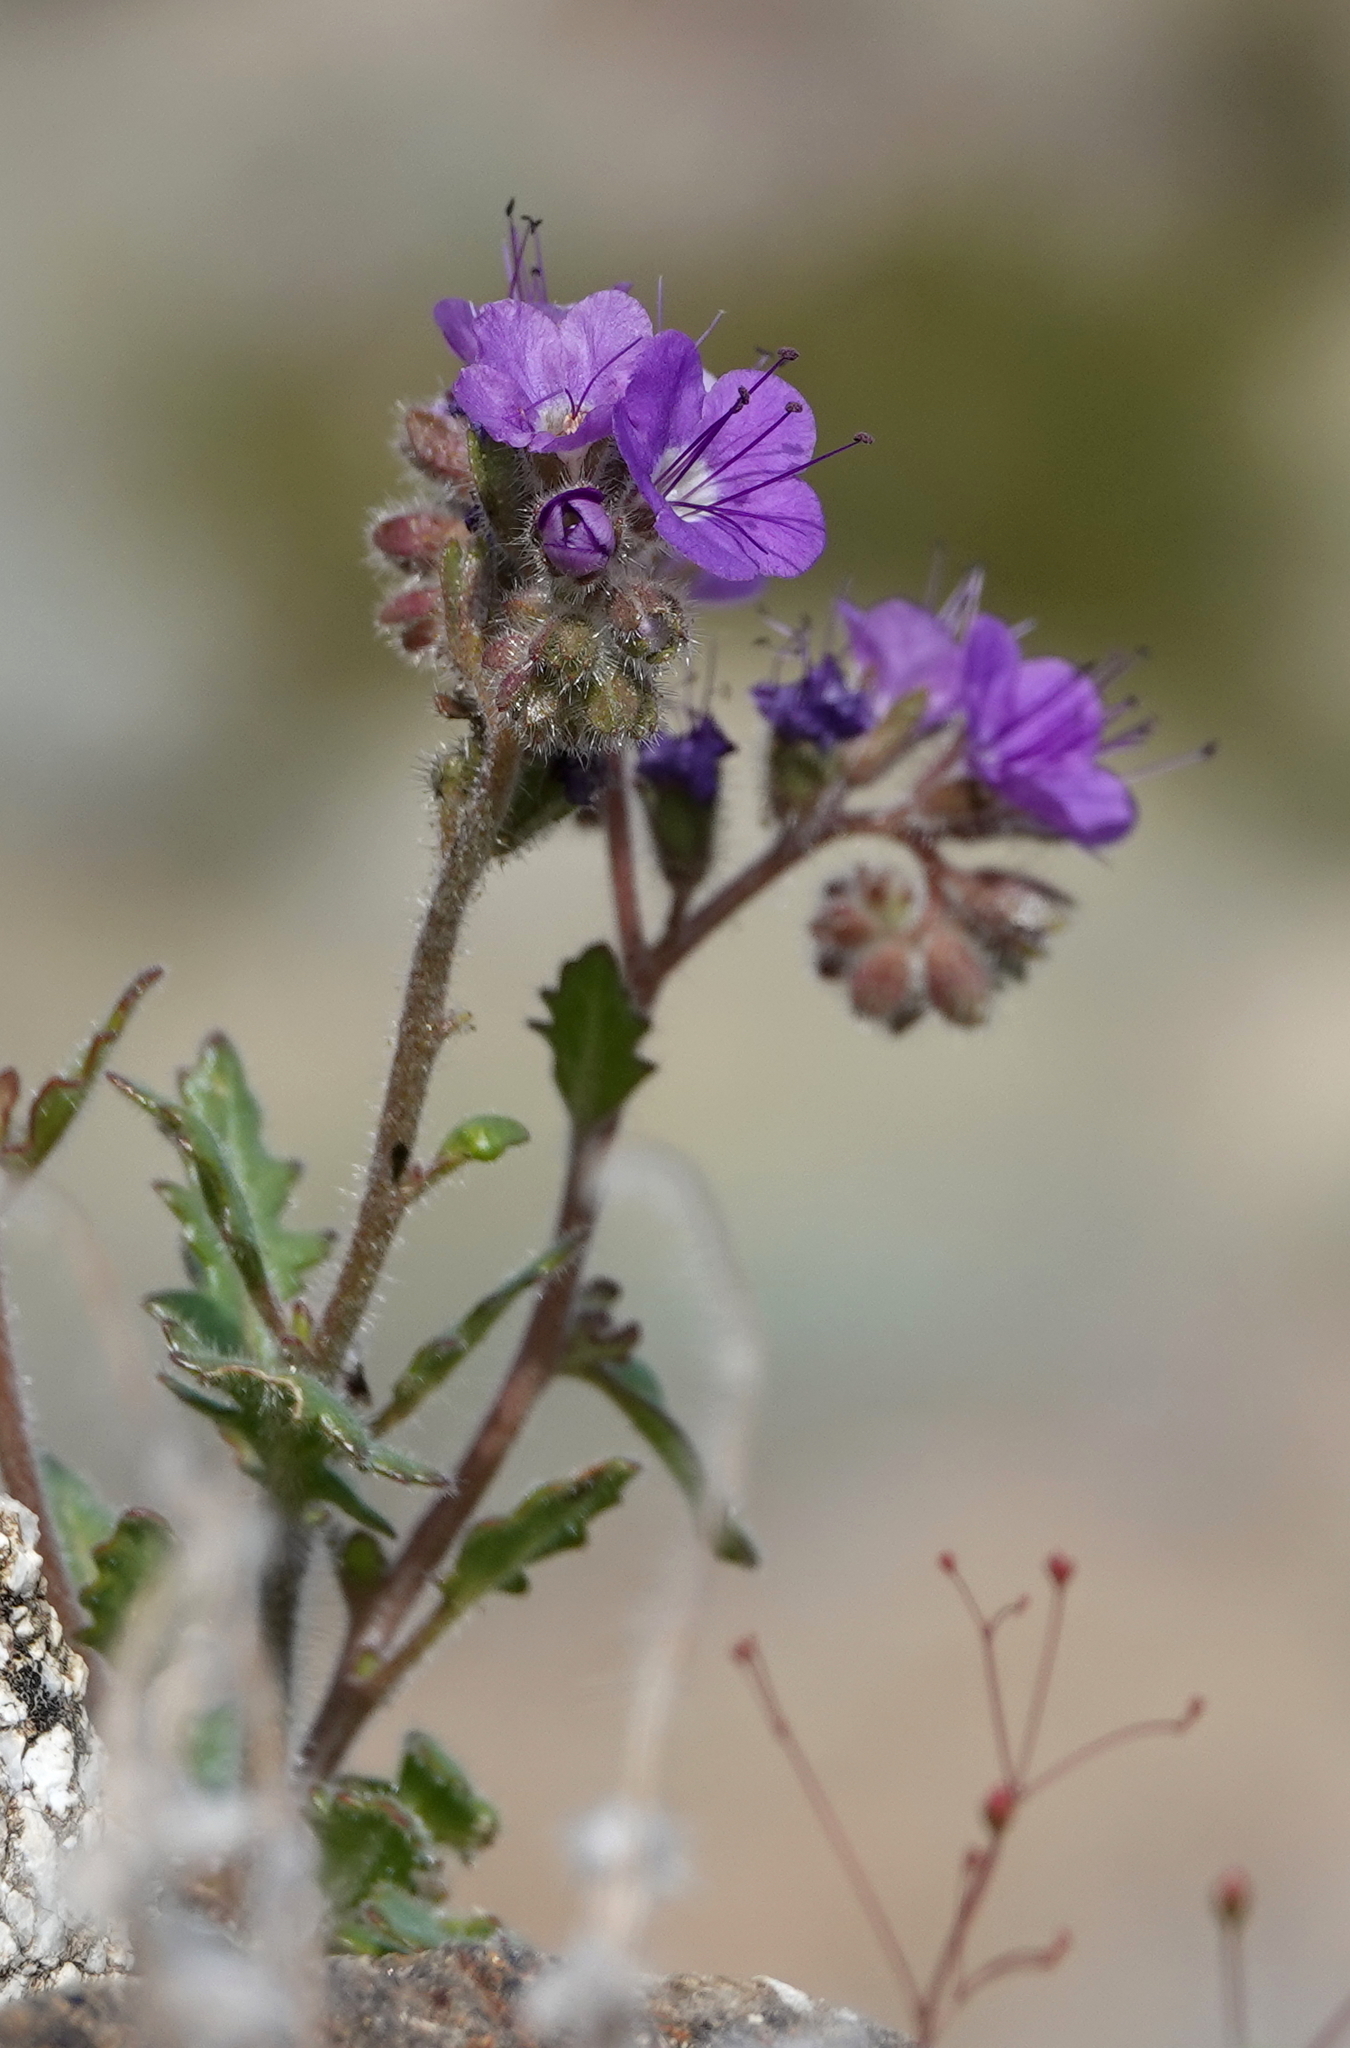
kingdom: Plantae
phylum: Tracheophyta
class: Magnoliopsida
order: Boraginales
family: Hydrophyllaceae
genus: Phacelia
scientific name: Phacelia crenulata
